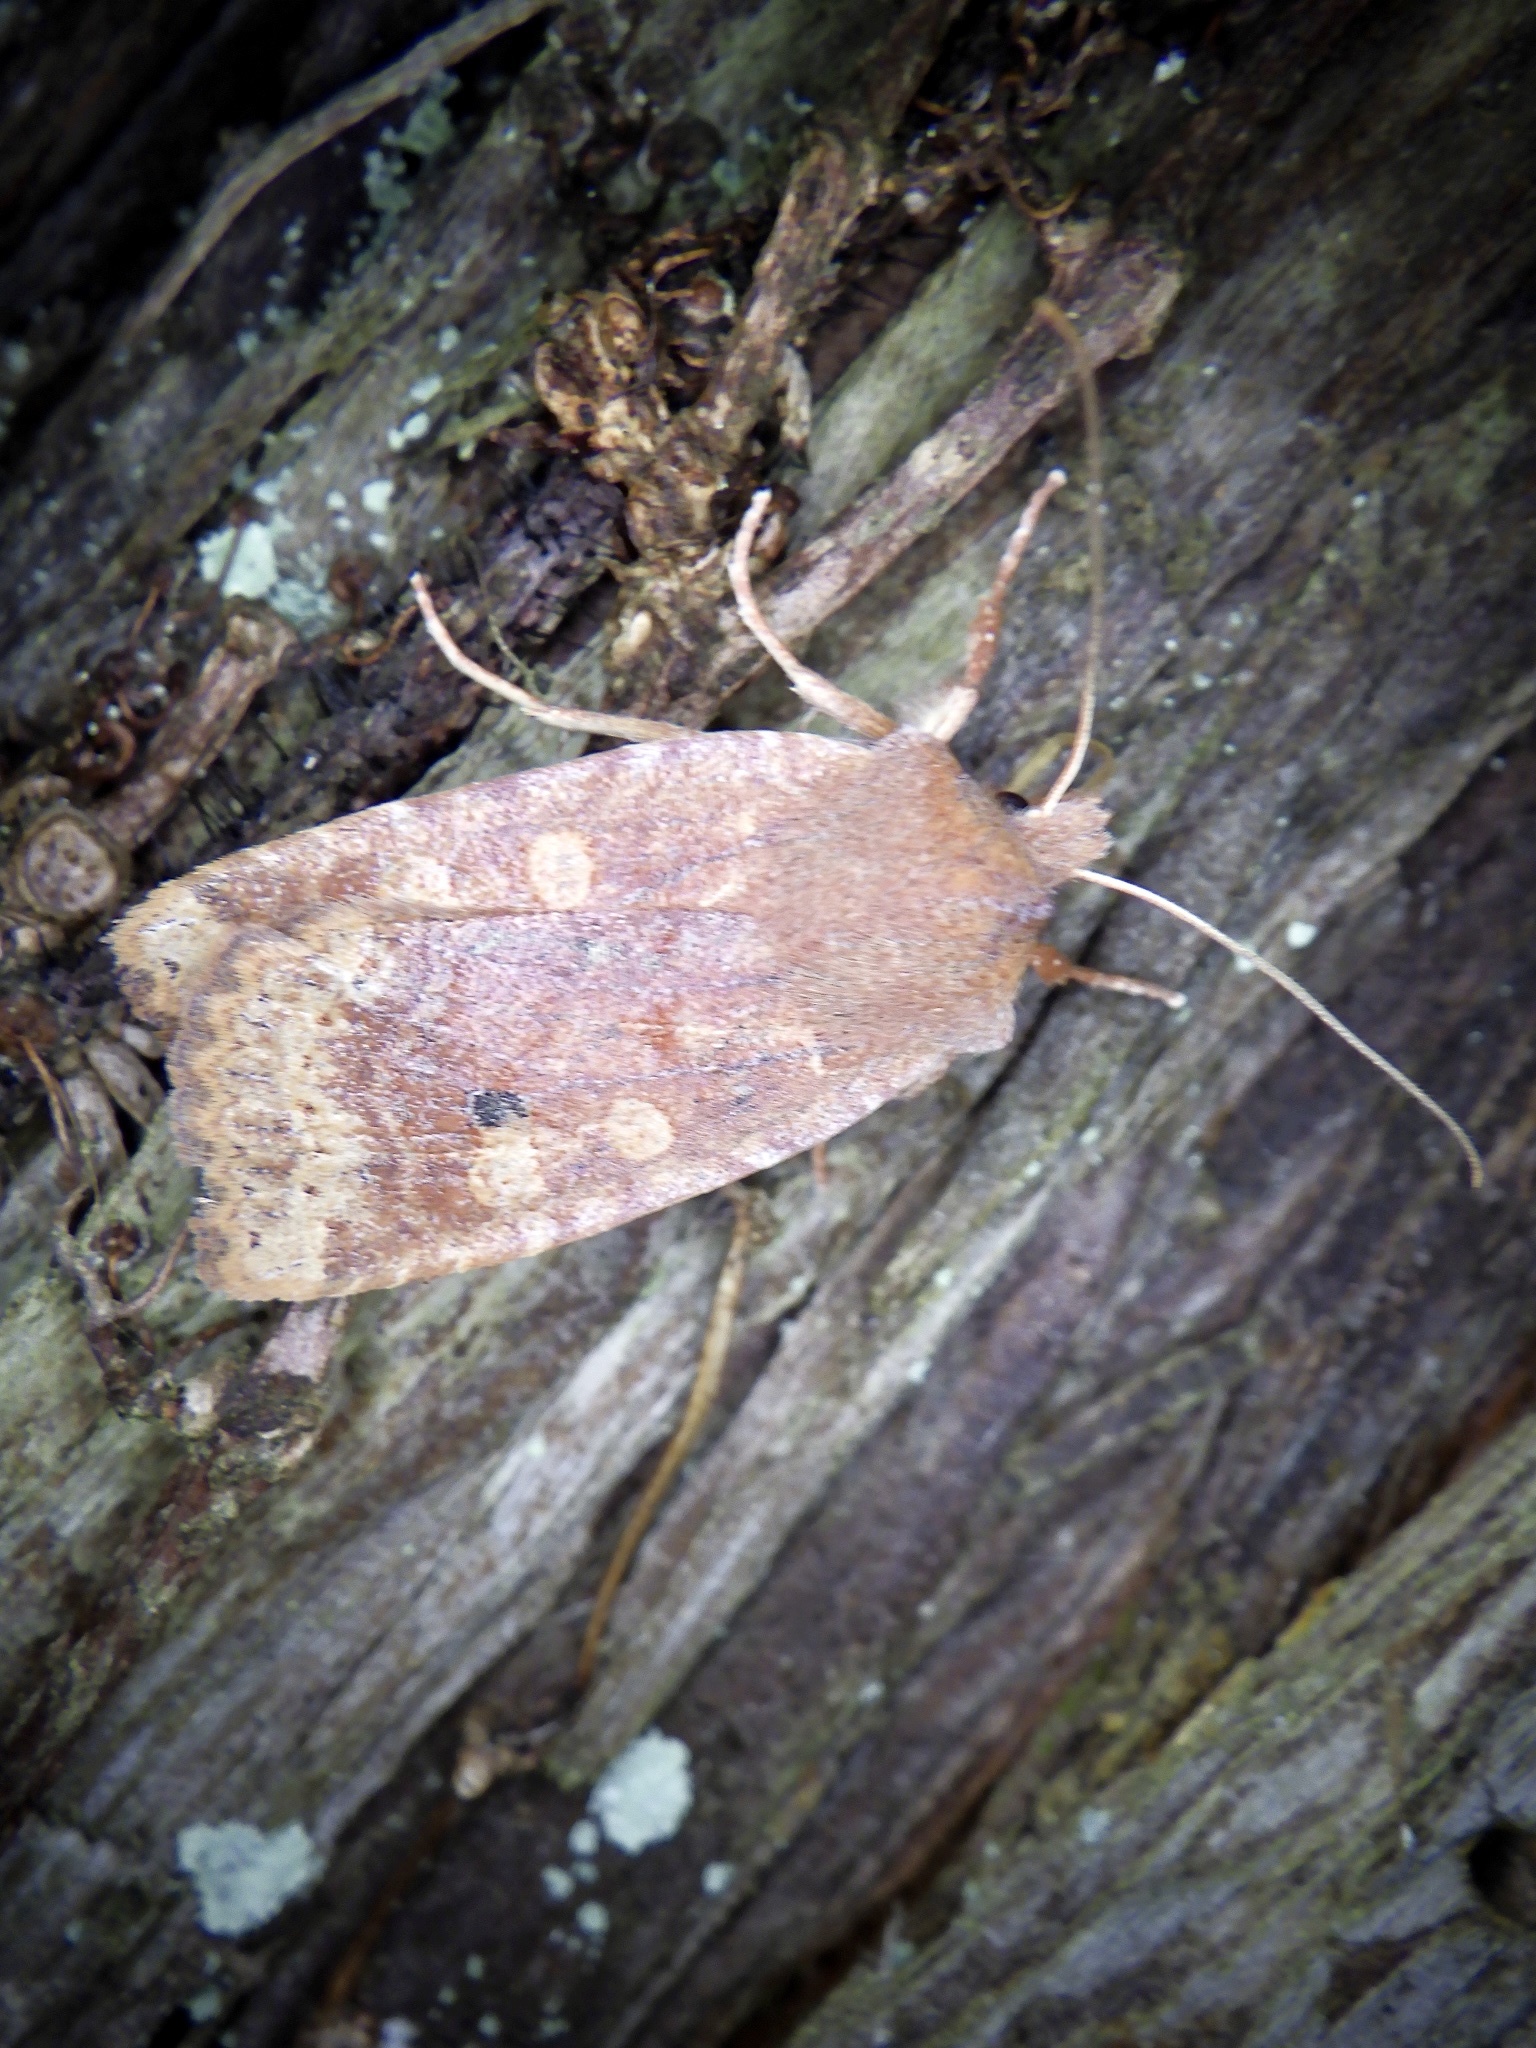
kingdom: Animalia
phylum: Arthropoda
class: Insecta
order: Lepidoptera
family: Noctuidae
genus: Conistra
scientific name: Conistra ardescens
